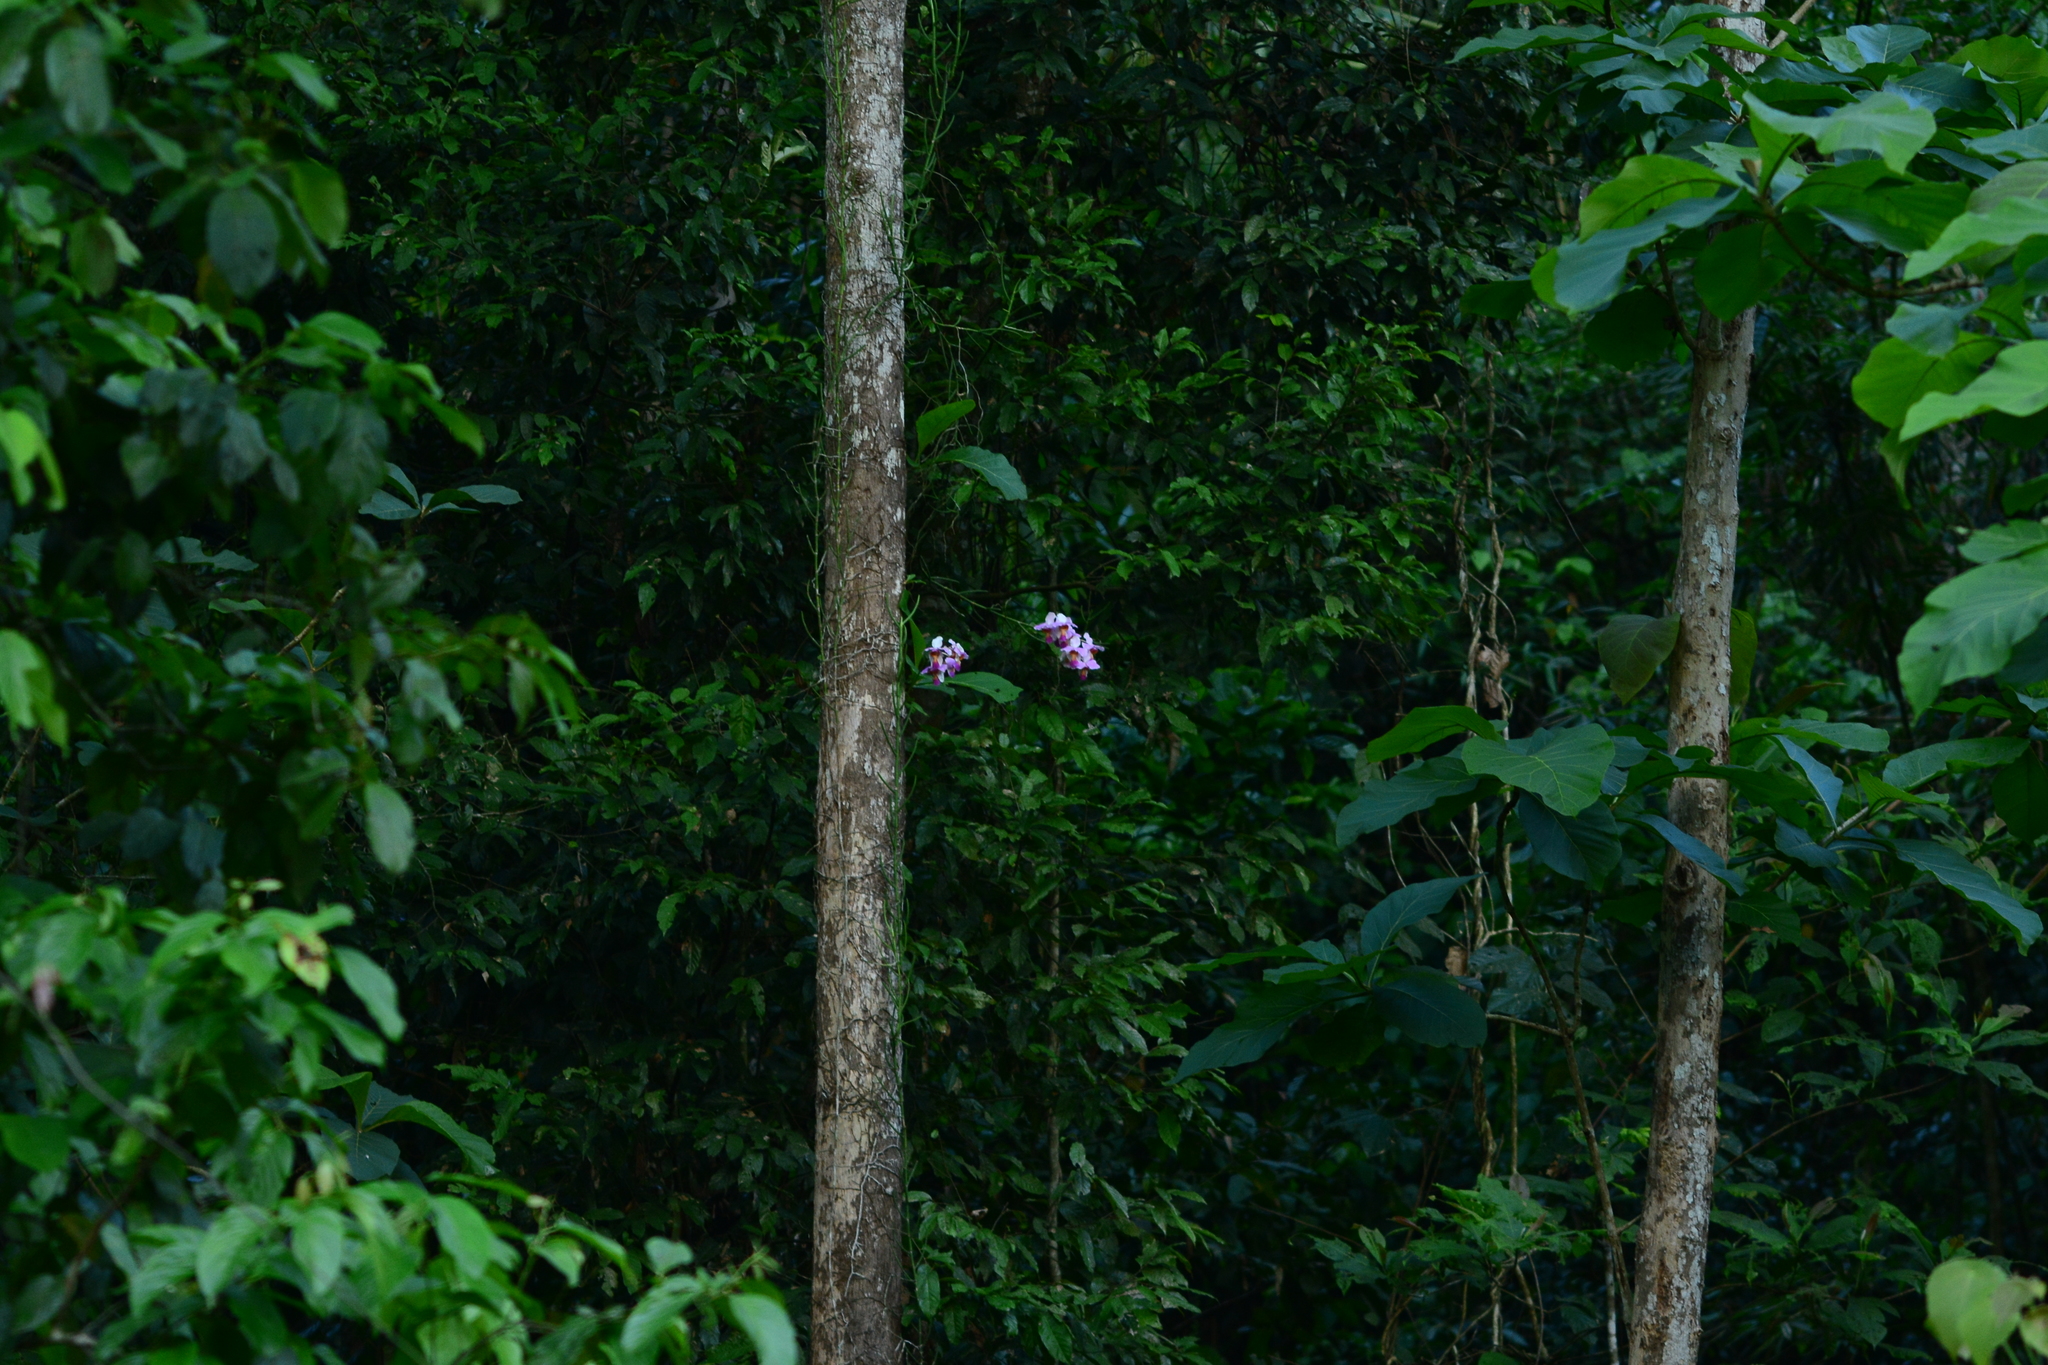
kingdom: Plantae
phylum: Tracheophyta
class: Liliopsida
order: Asparagales
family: Orchidaceae
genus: Papilionanthe
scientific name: Papilionanthe teres
